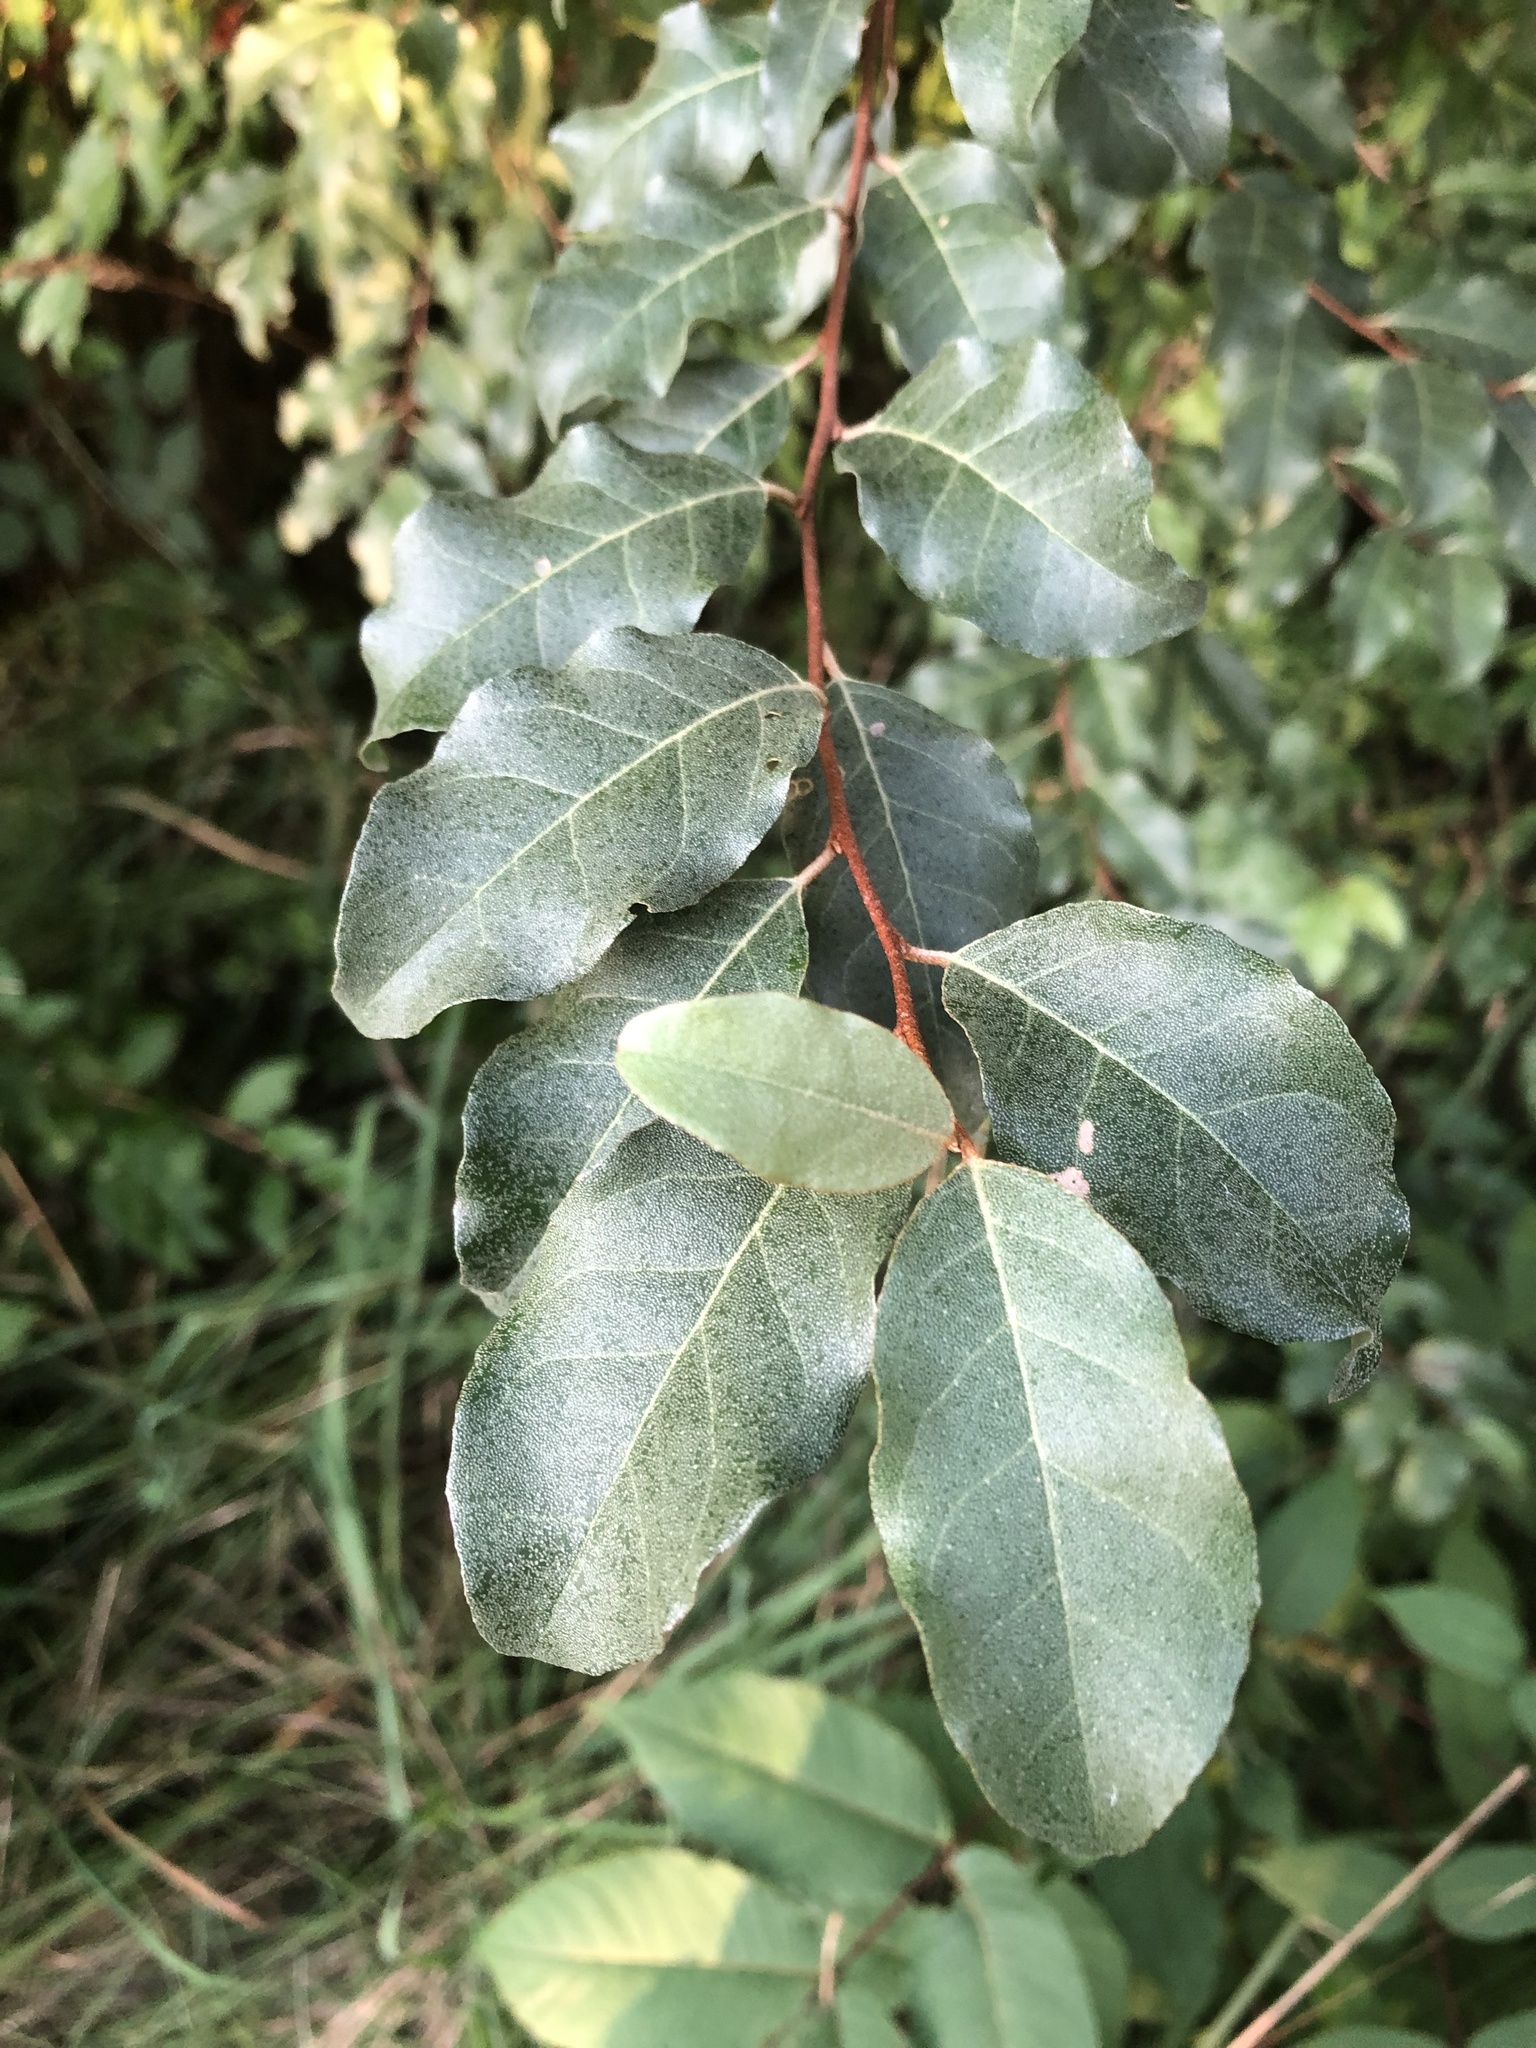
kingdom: Plantae
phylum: Tracheophyta
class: Magnoliopsida
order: Rosales
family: Elaeagnaceae
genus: Elaeagnus
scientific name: Elaeagnus umbellata
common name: Autumn olive
